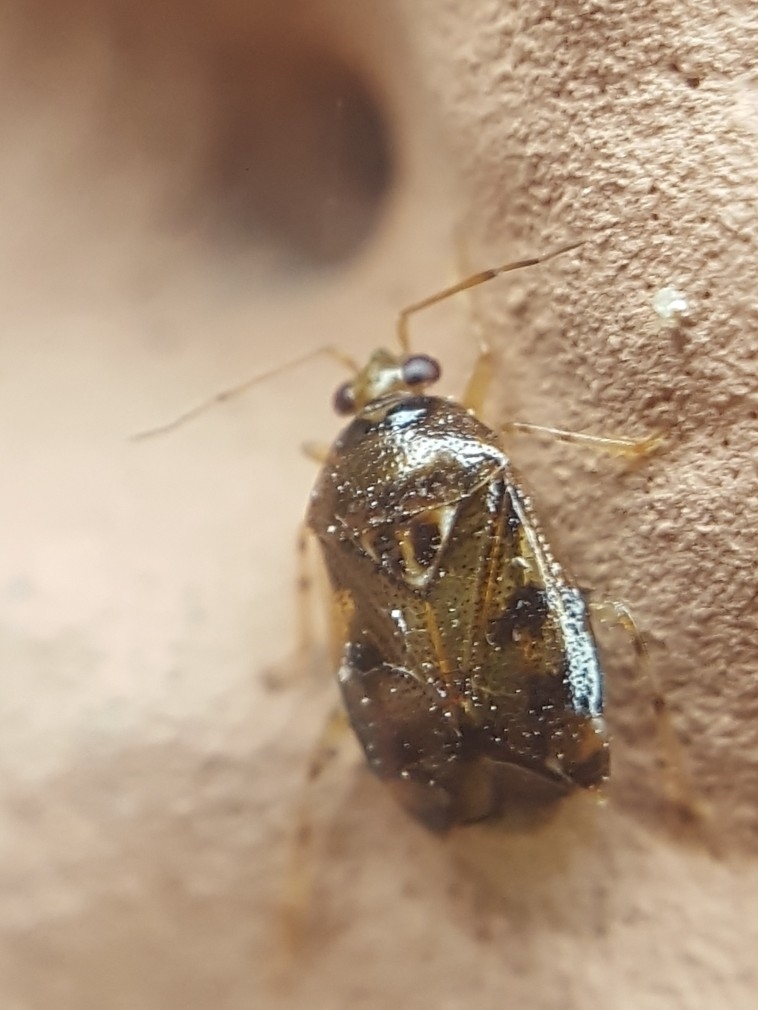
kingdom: Animalia
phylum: Arthropoda
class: Insecta
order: Hemiptera
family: Miridae
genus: Deraeocoris
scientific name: Deraeocoris lutescens
